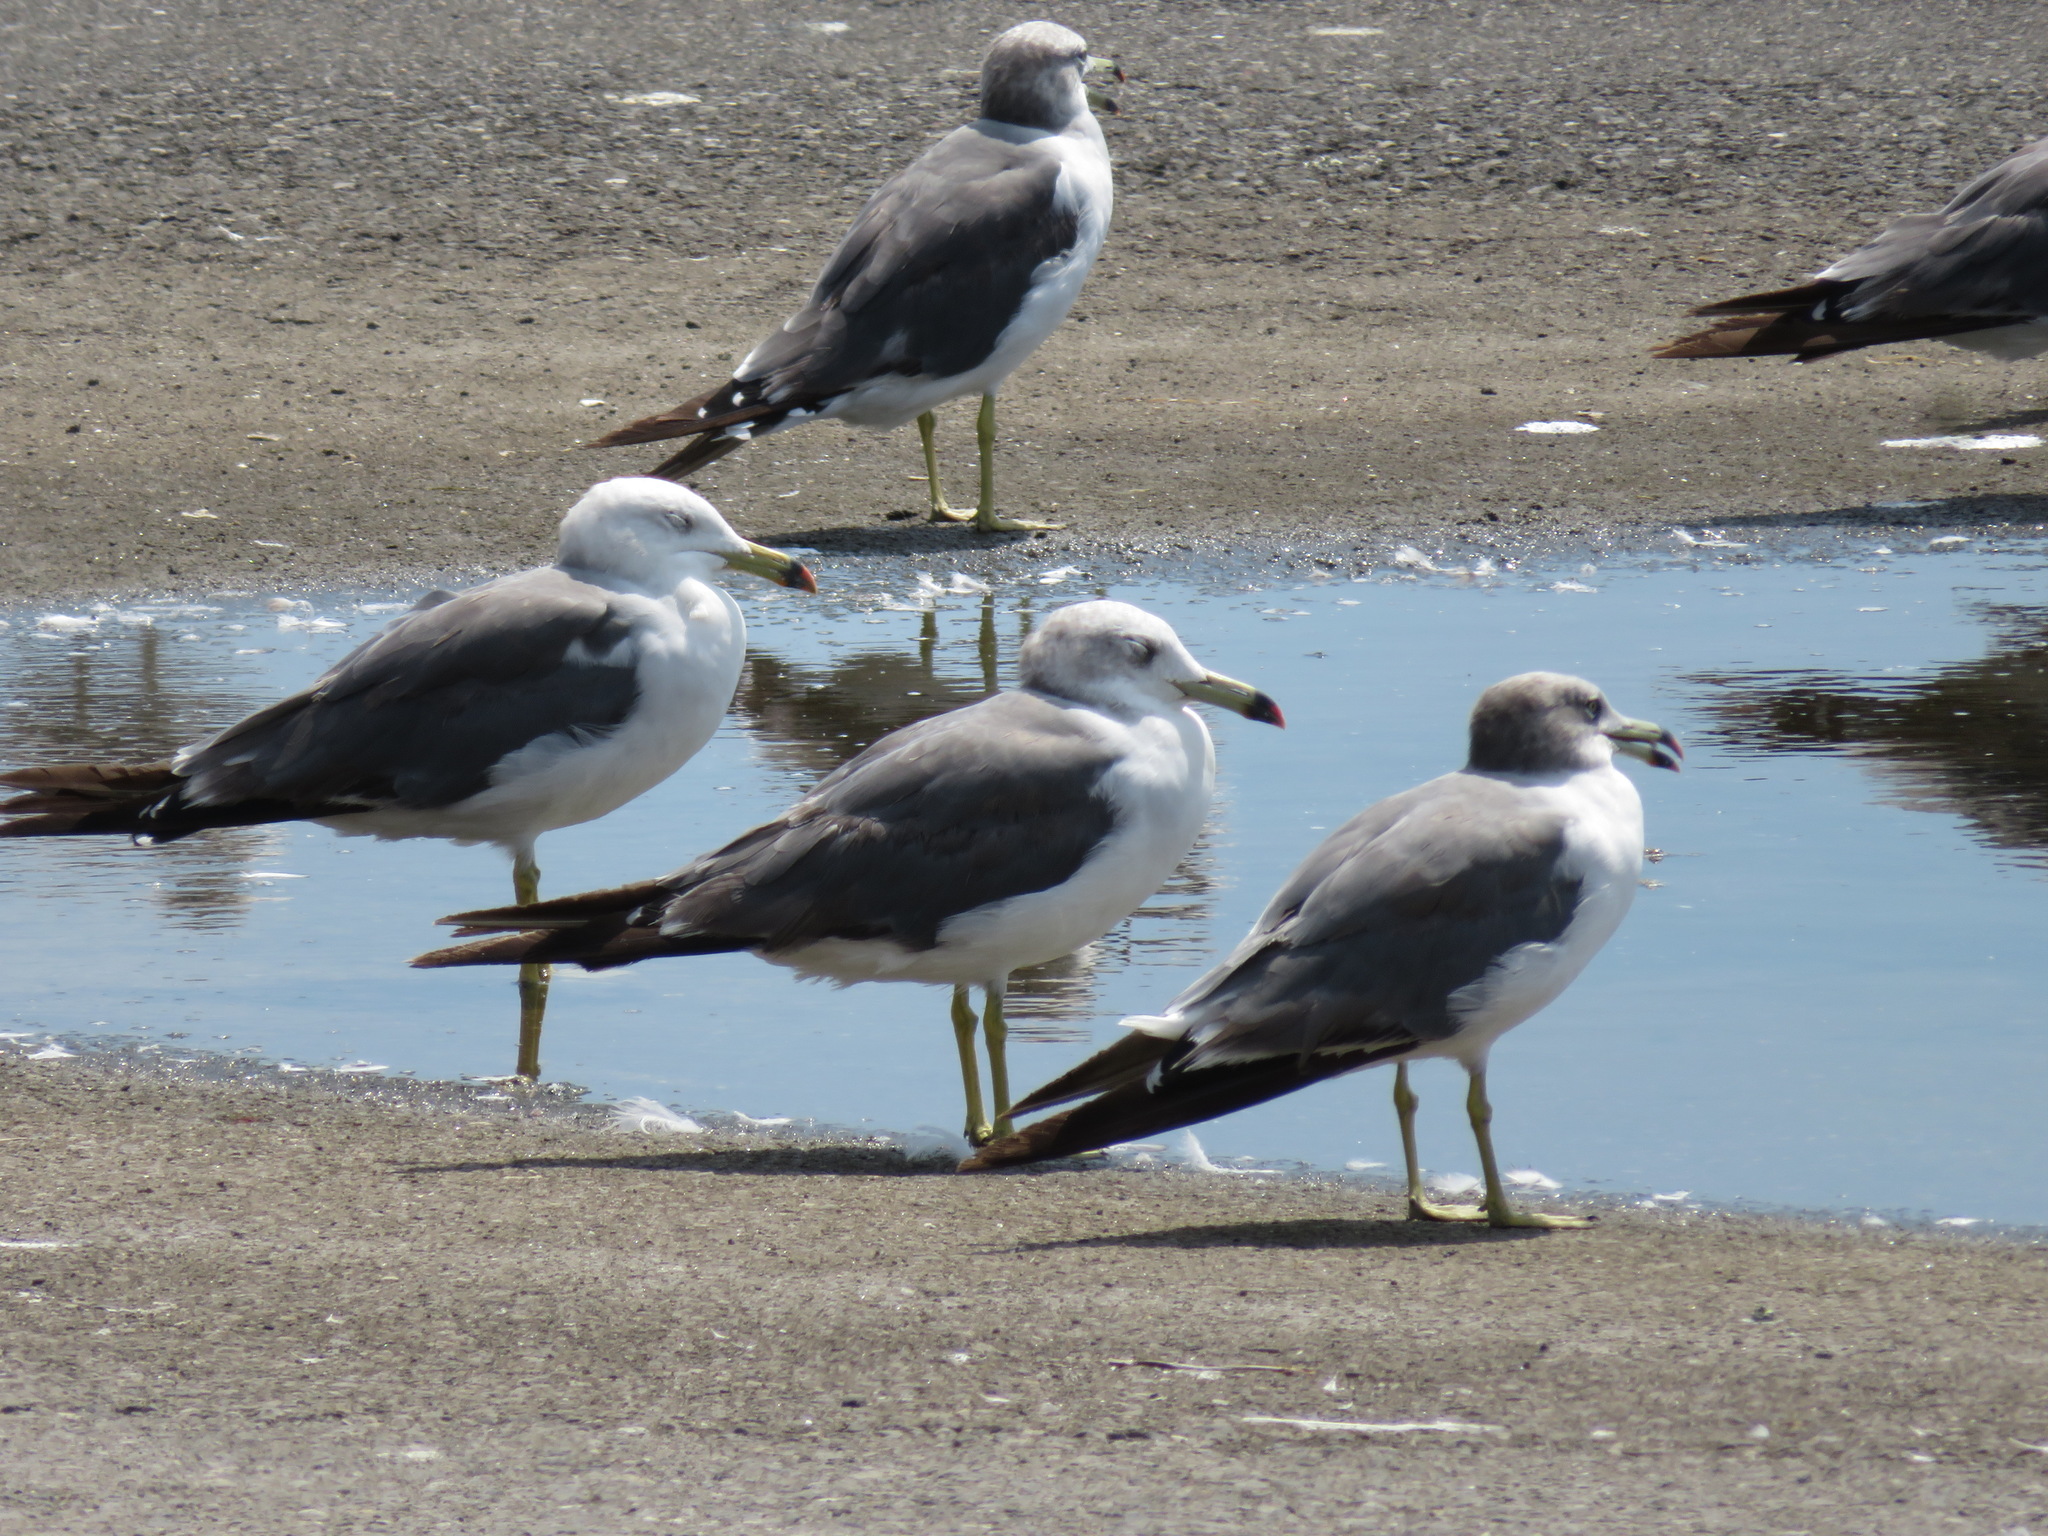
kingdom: Animalia
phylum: Chordata
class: Aves
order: Charadriiformes
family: Laridae
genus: Larus
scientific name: Larus crassirostris
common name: Black-tailed gull
